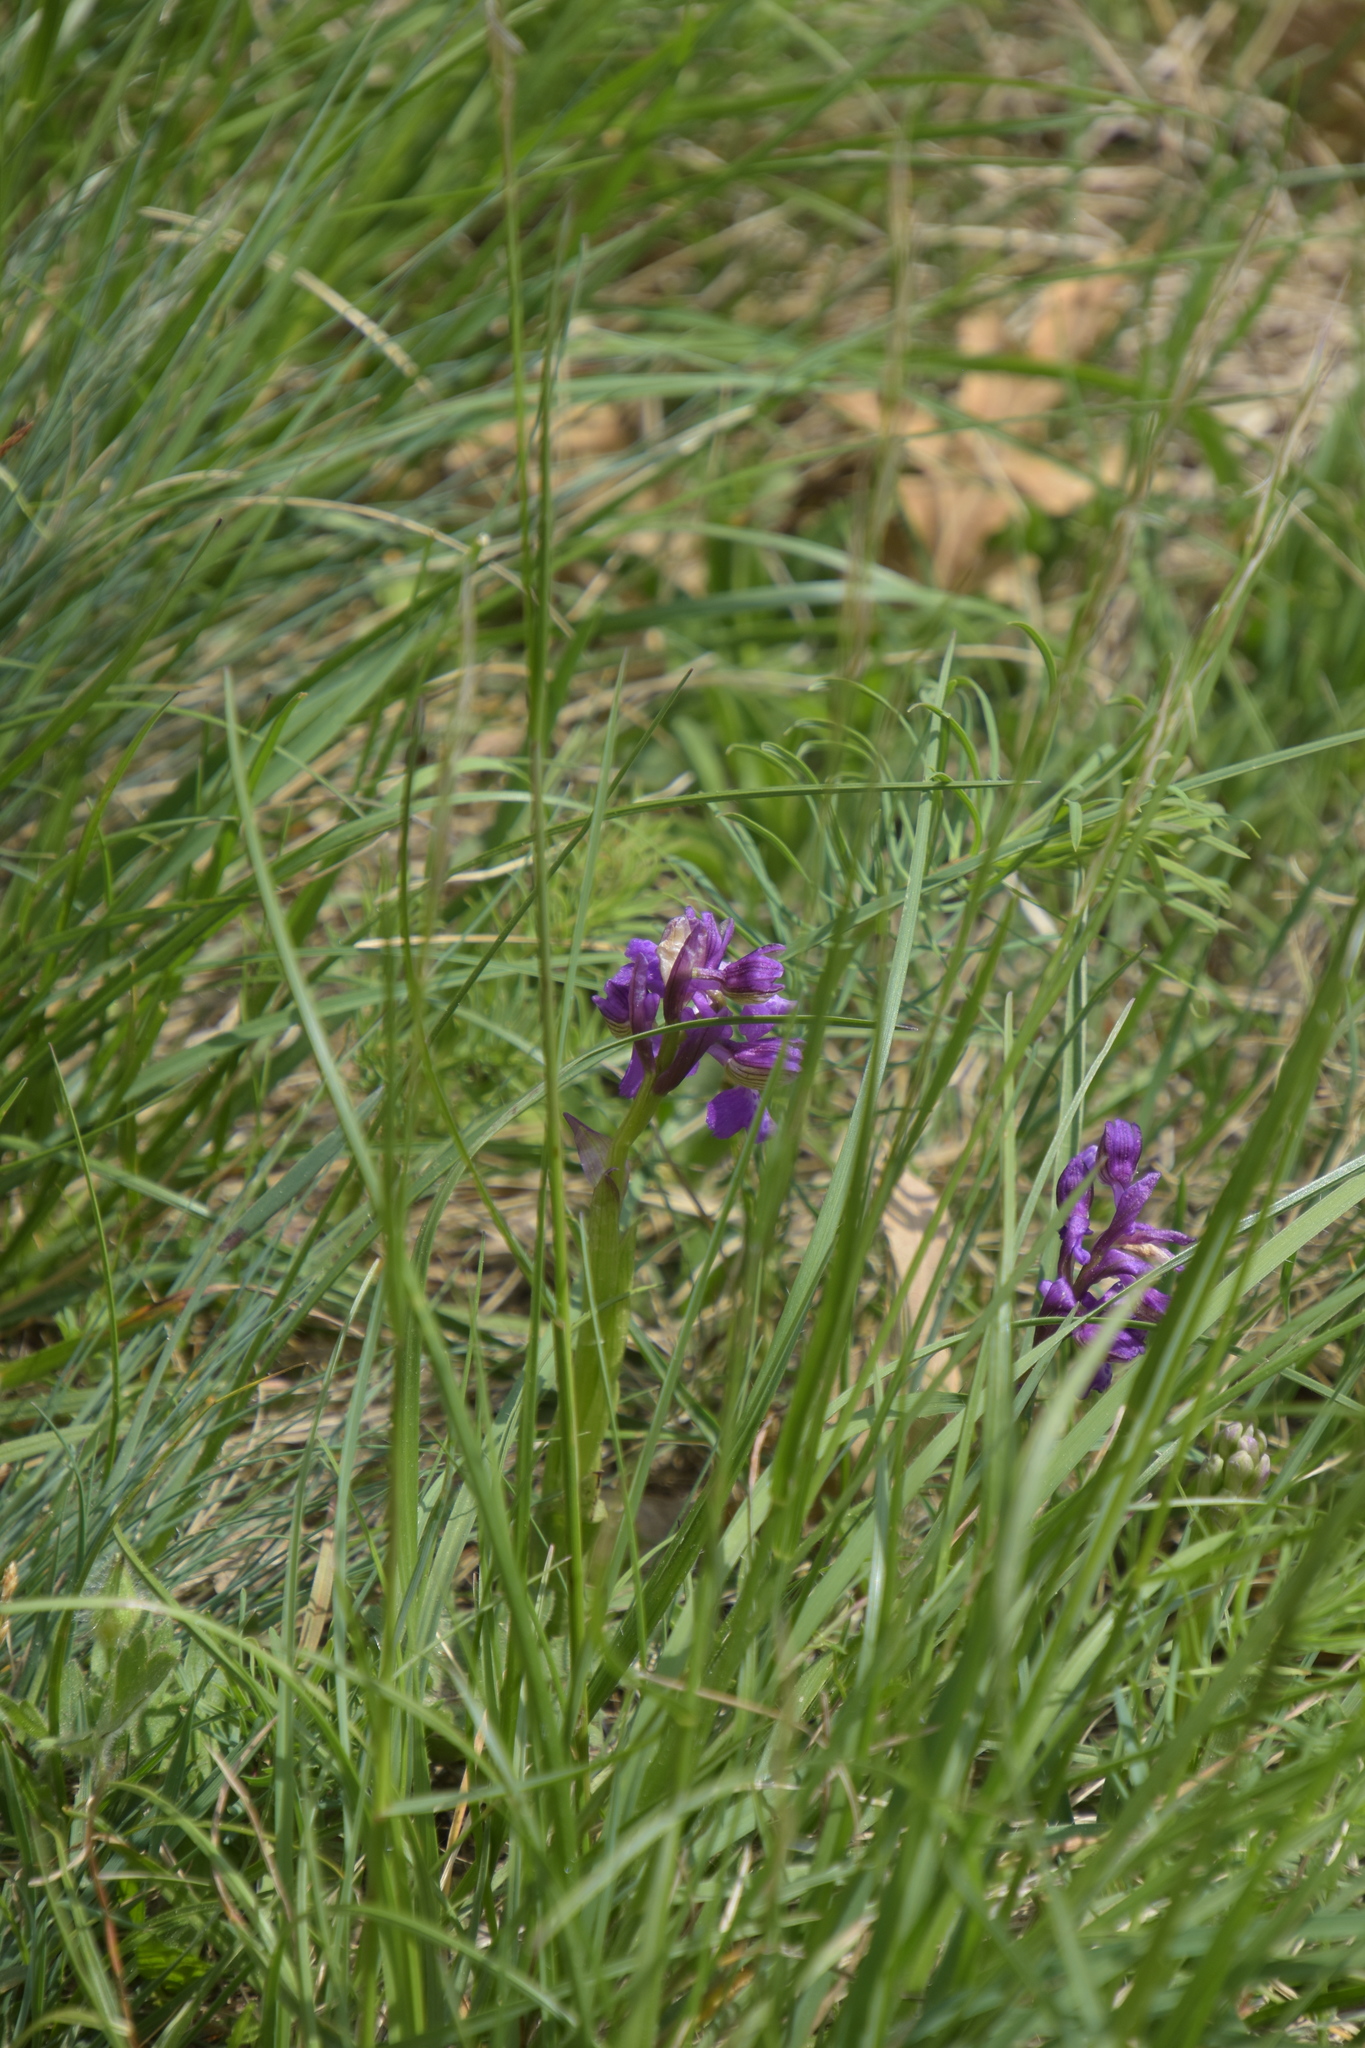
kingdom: Plantae
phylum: Tracheophyta
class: Liliopsida
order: Asparagales
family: Orchidaceae
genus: Anacamptis
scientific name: Anacamptis morio
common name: Green-winged orchid
